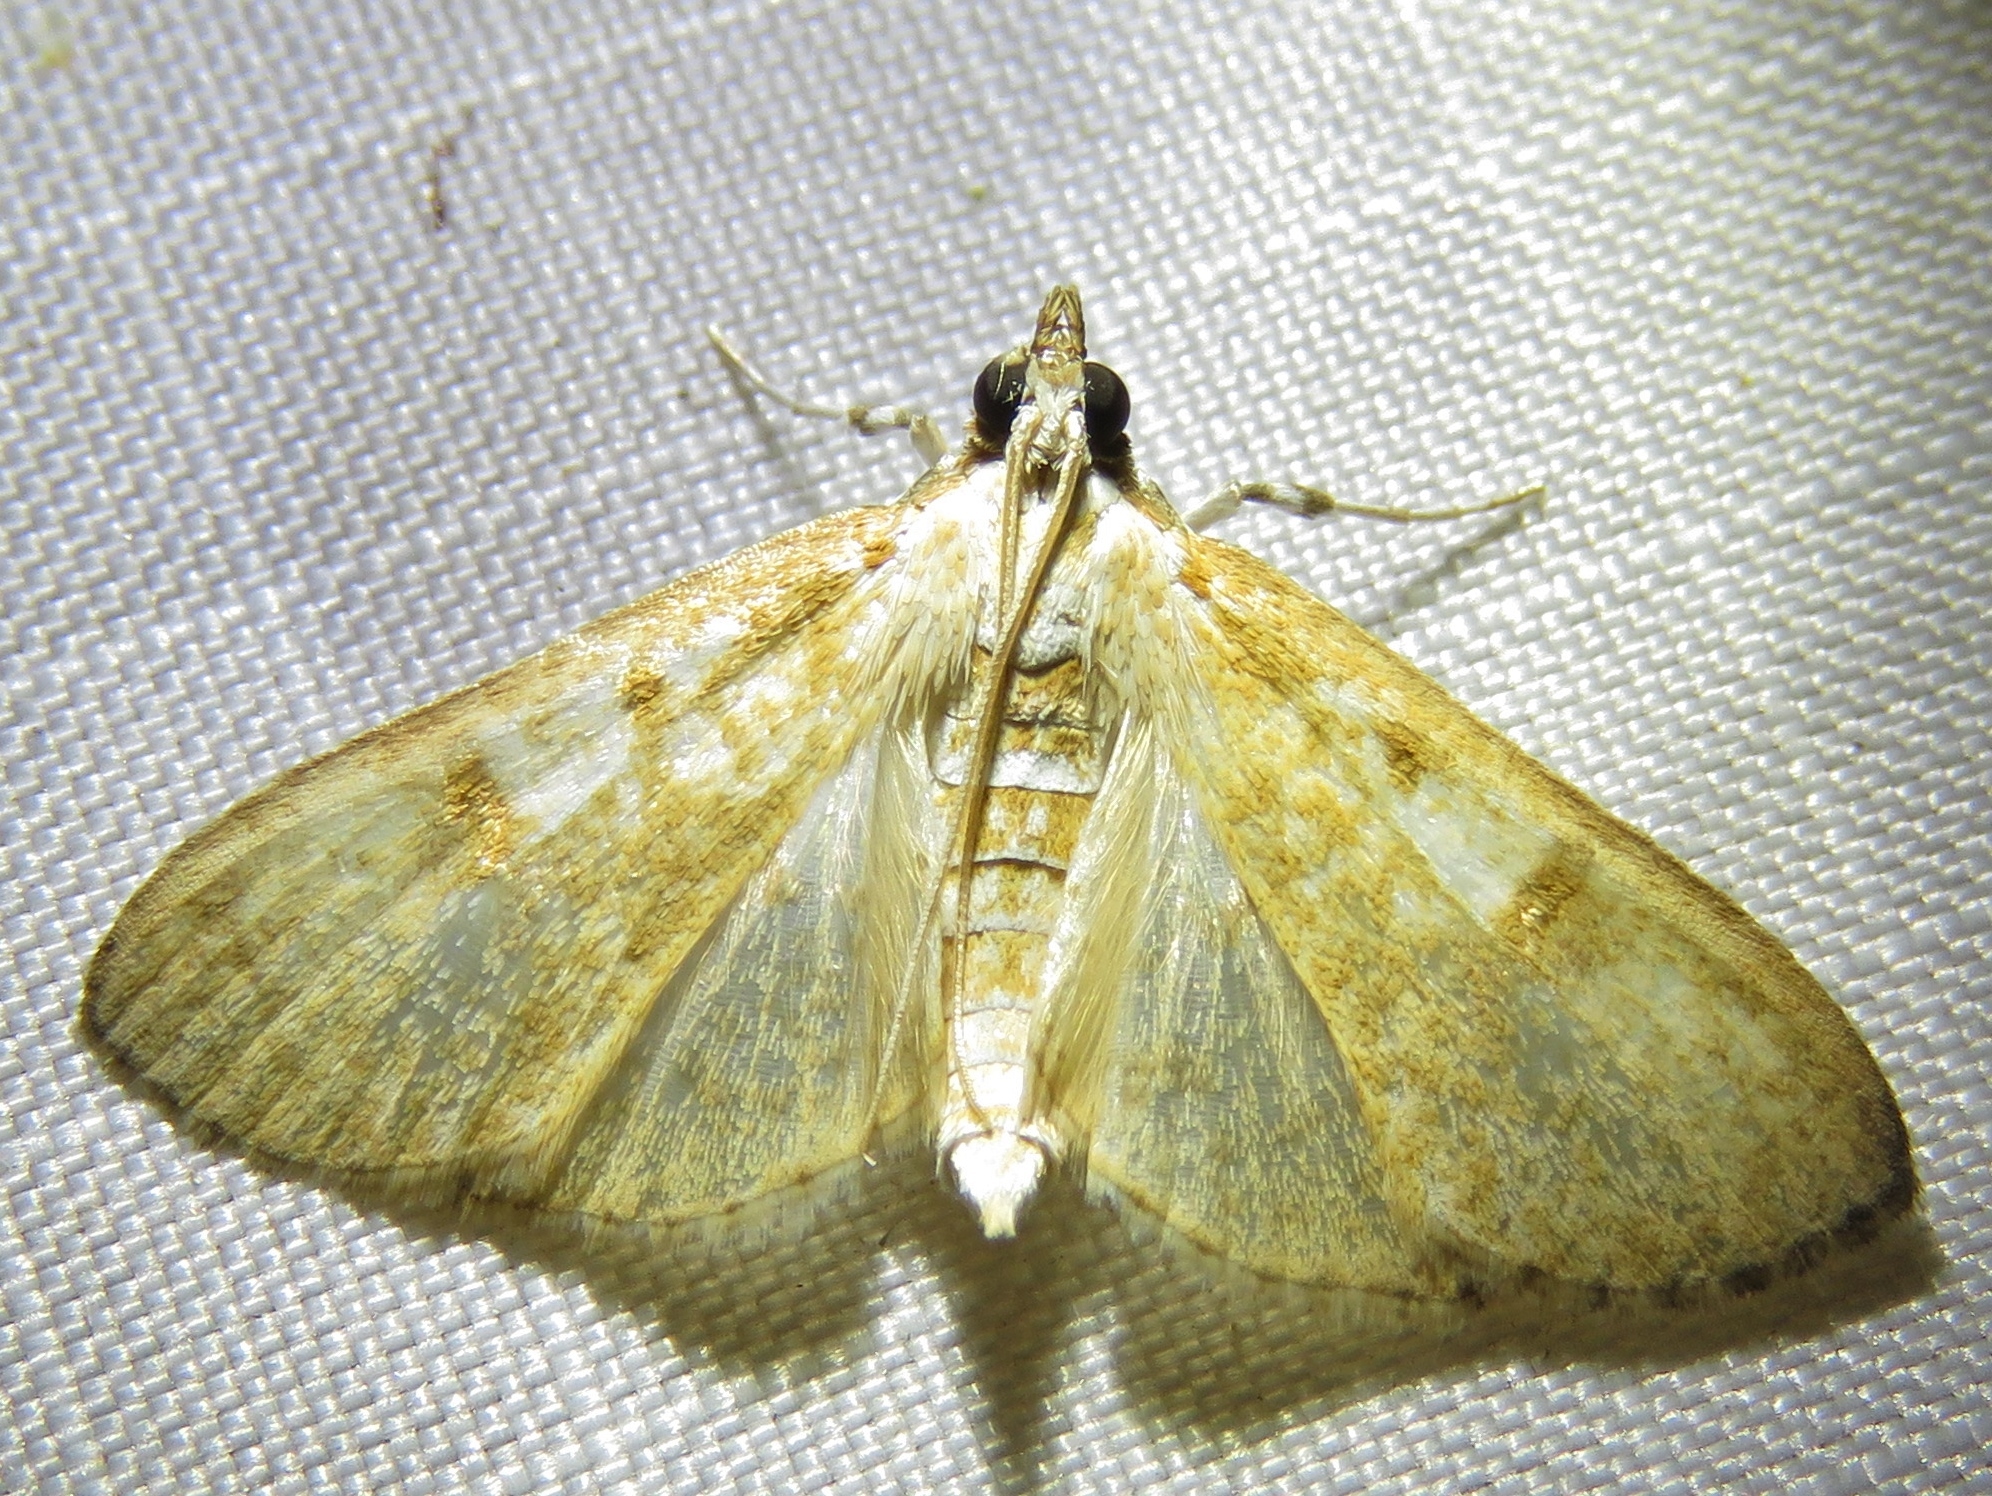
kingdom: Animalia
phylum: Arthropoda
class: Insecta
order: Lepidoptera
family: Crambidae
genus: Palpita
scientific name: Palpita freemanalis
